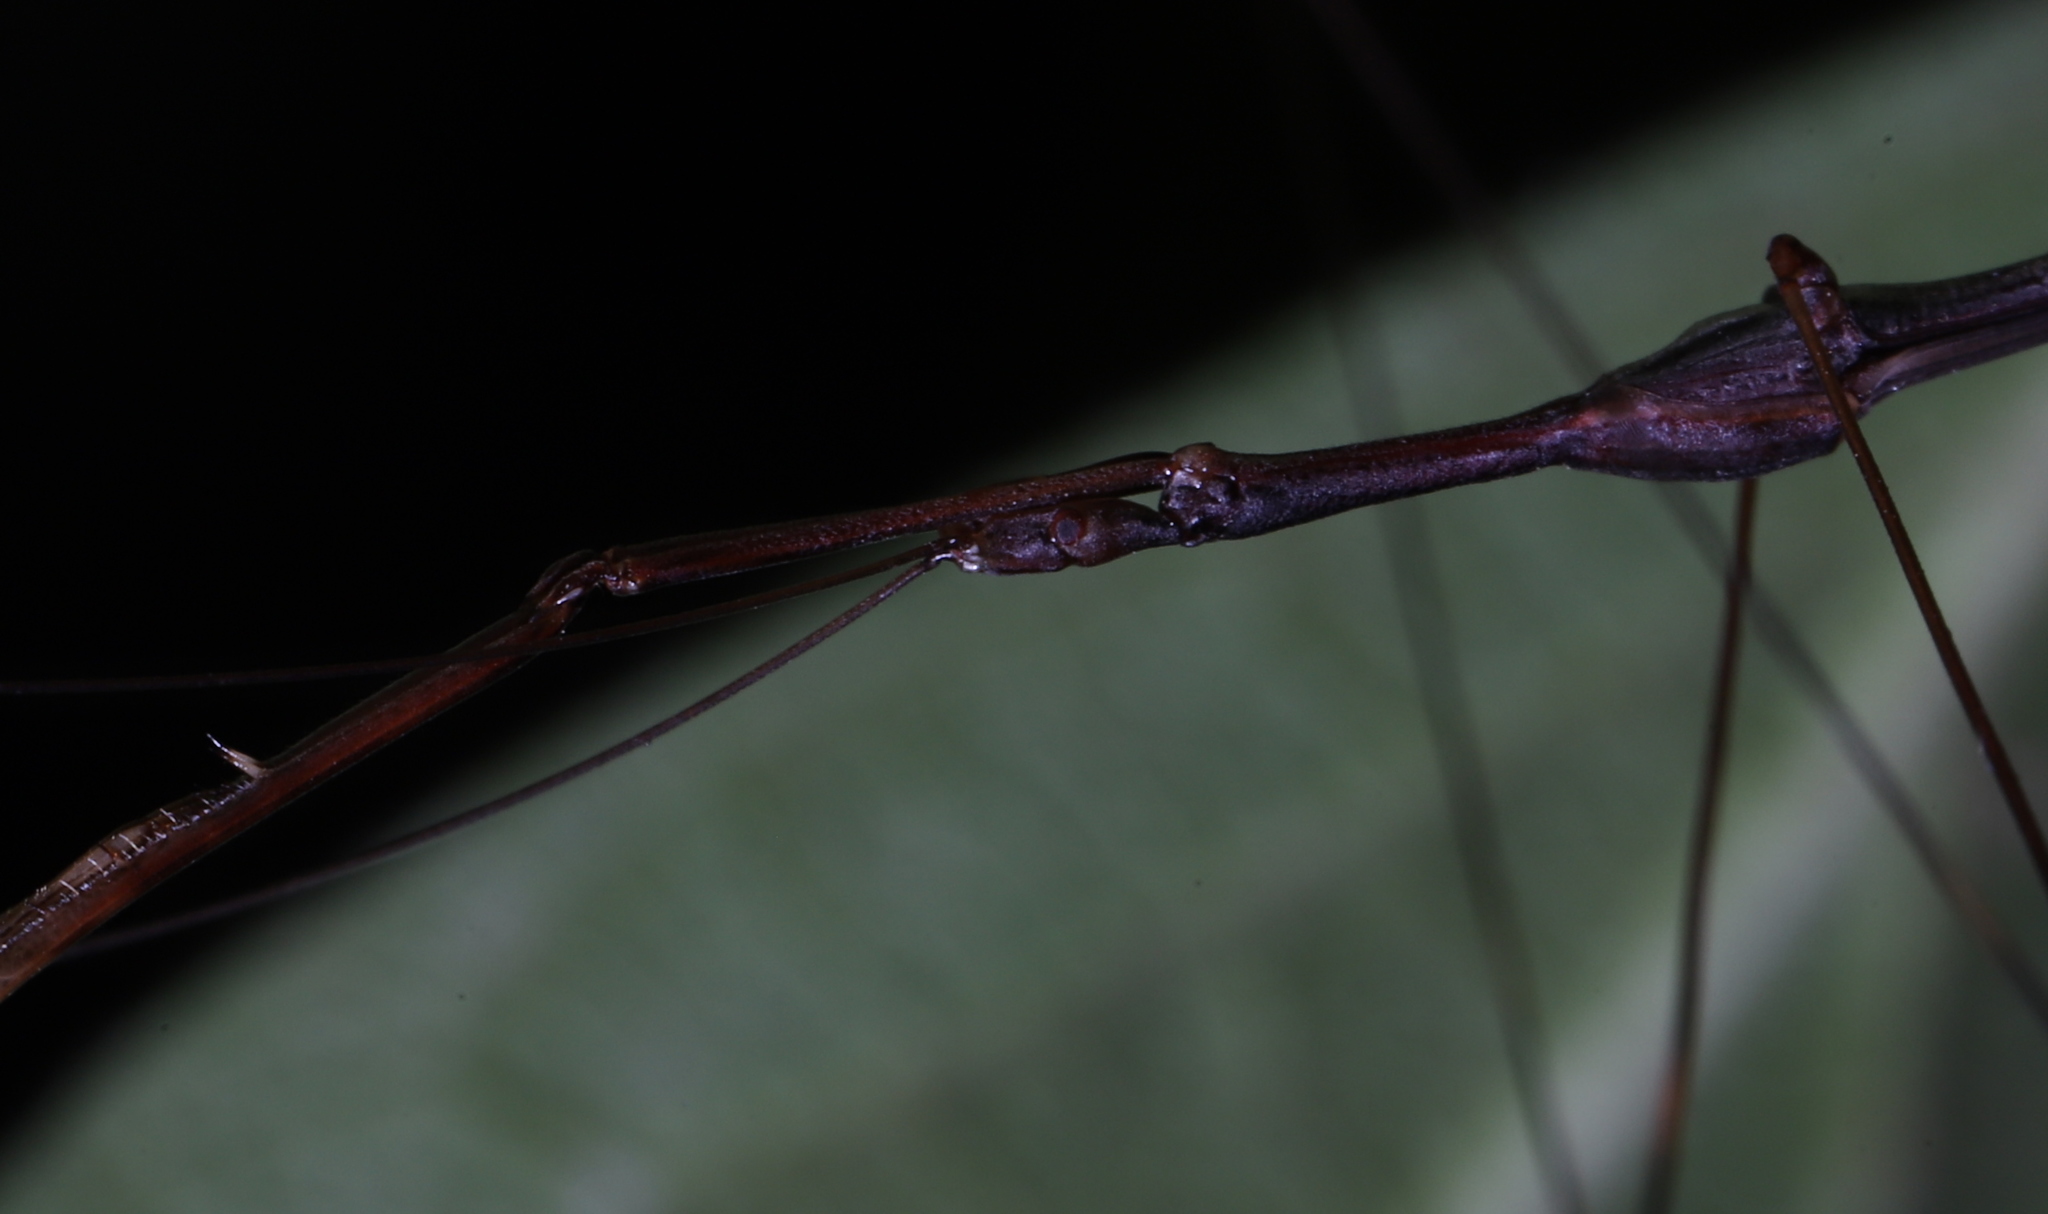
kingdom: Animalia
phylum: Arthropoda
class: Insecta
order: Hemiptera
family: Reduviidae
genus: Emesaya
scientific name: Emesaya brevipennis
